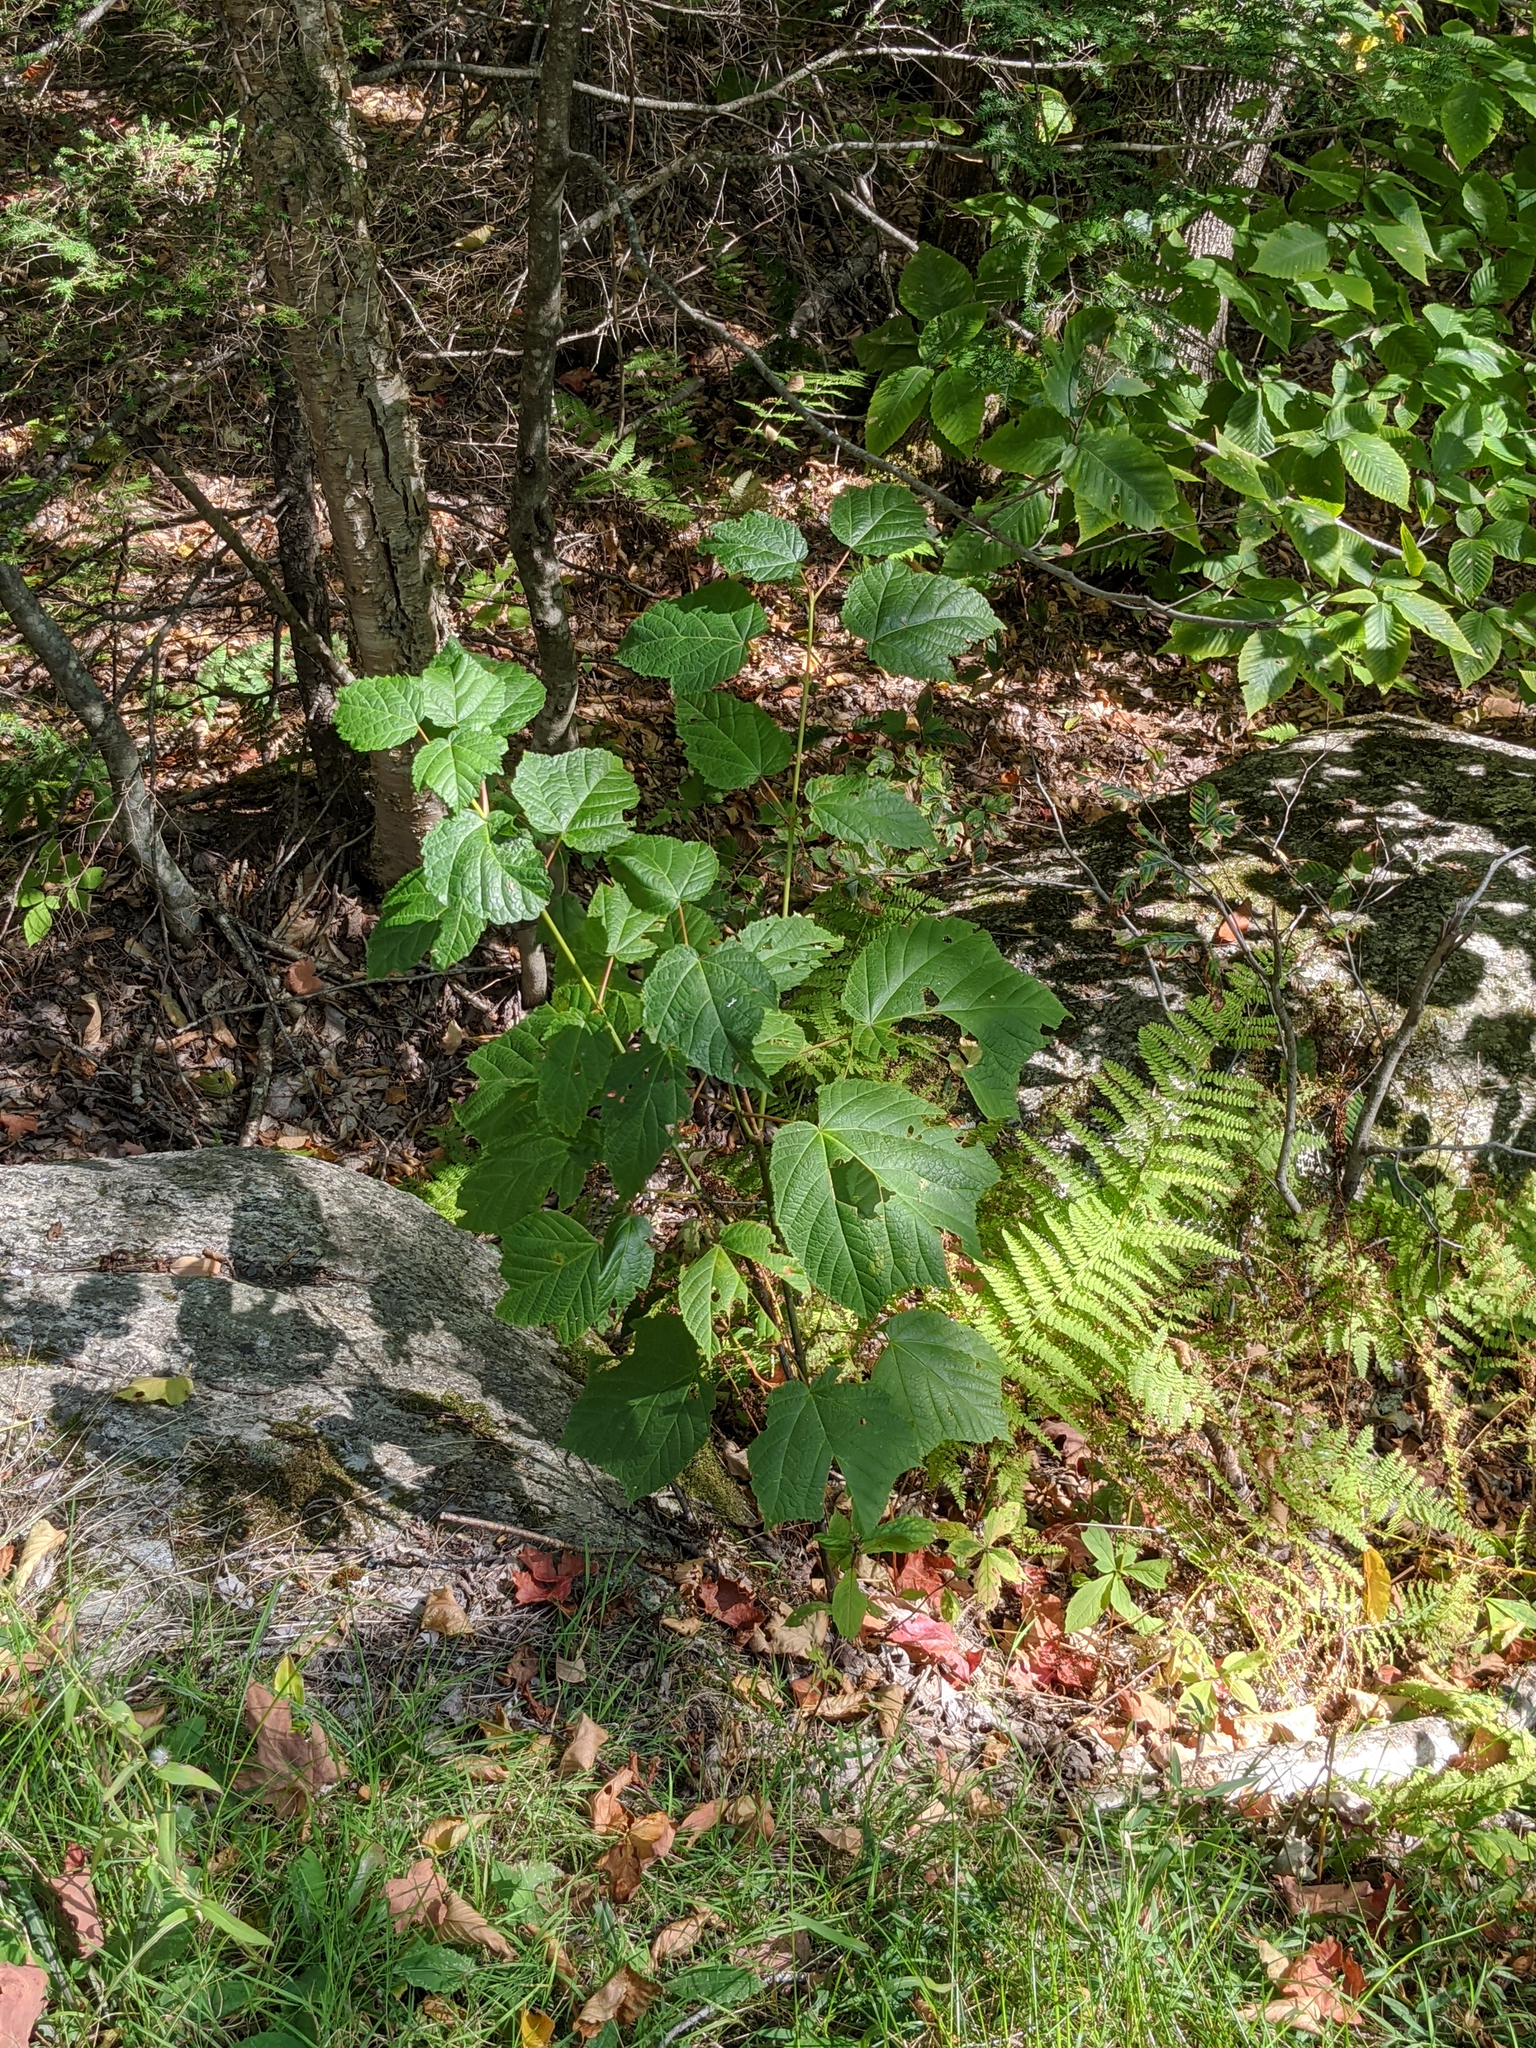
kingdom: Plantae
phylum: Tracheophyta
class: Magnoliopsida
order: Sapindales
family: Sapindaceae
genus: Acer
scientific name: Acer pensylvanicum
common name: Moosewood
